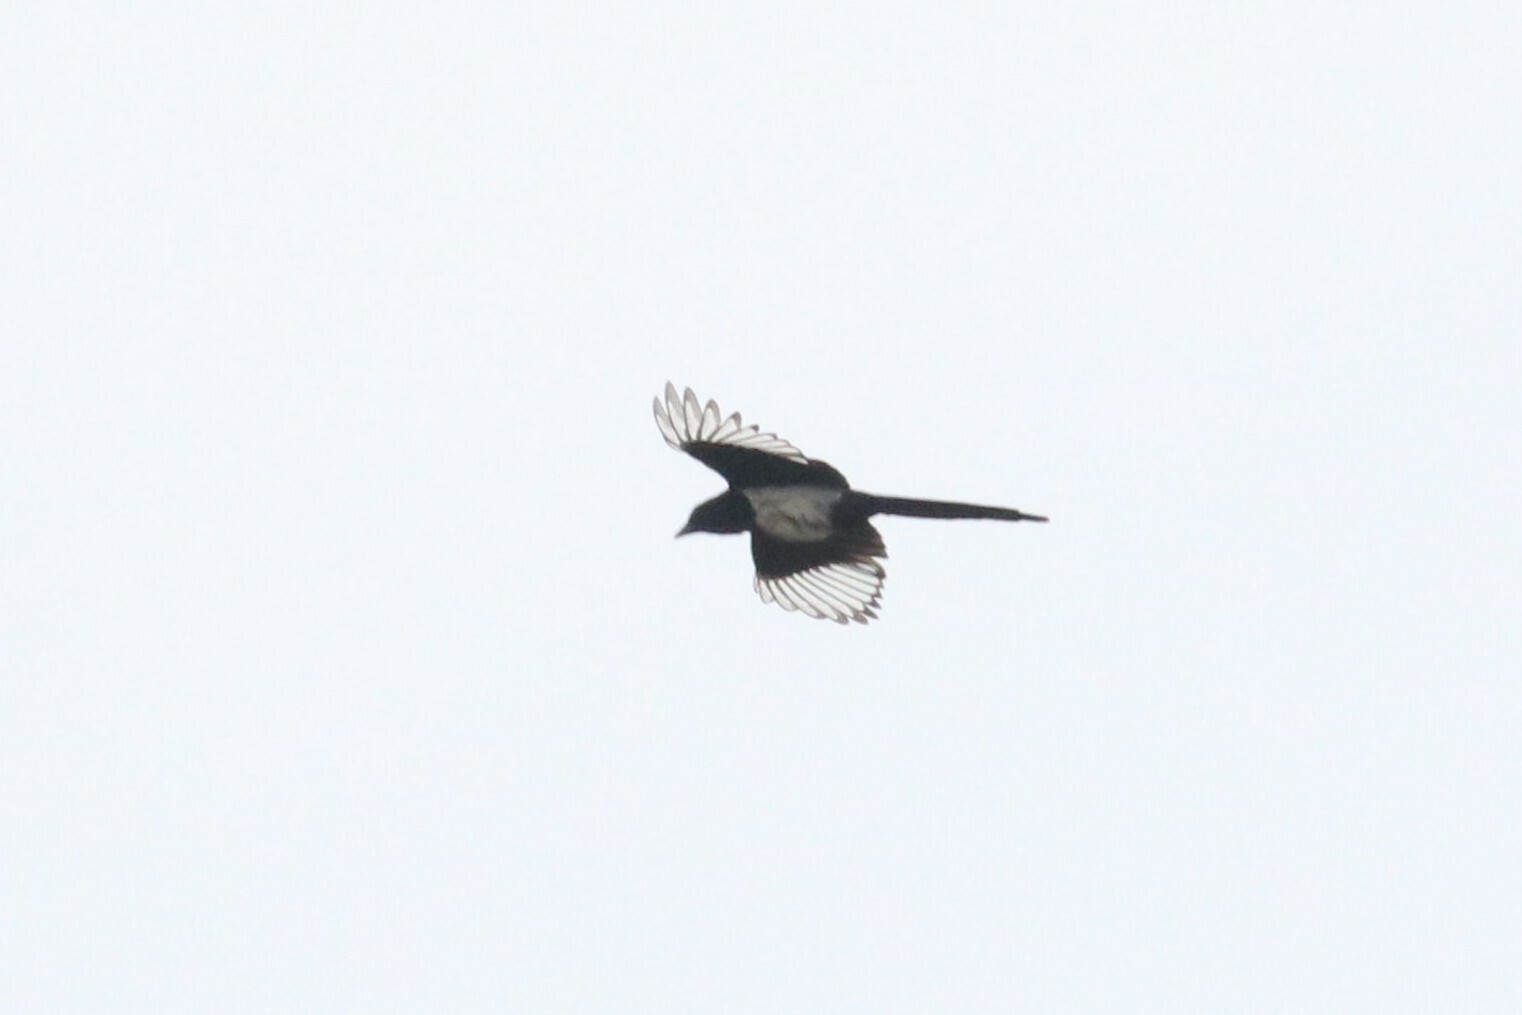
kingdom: Animalia
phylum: Chordata
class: Aves
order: Passeriformes
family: Corvidae
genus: Pica
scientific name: Pica pica
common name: Eurasian magpie
